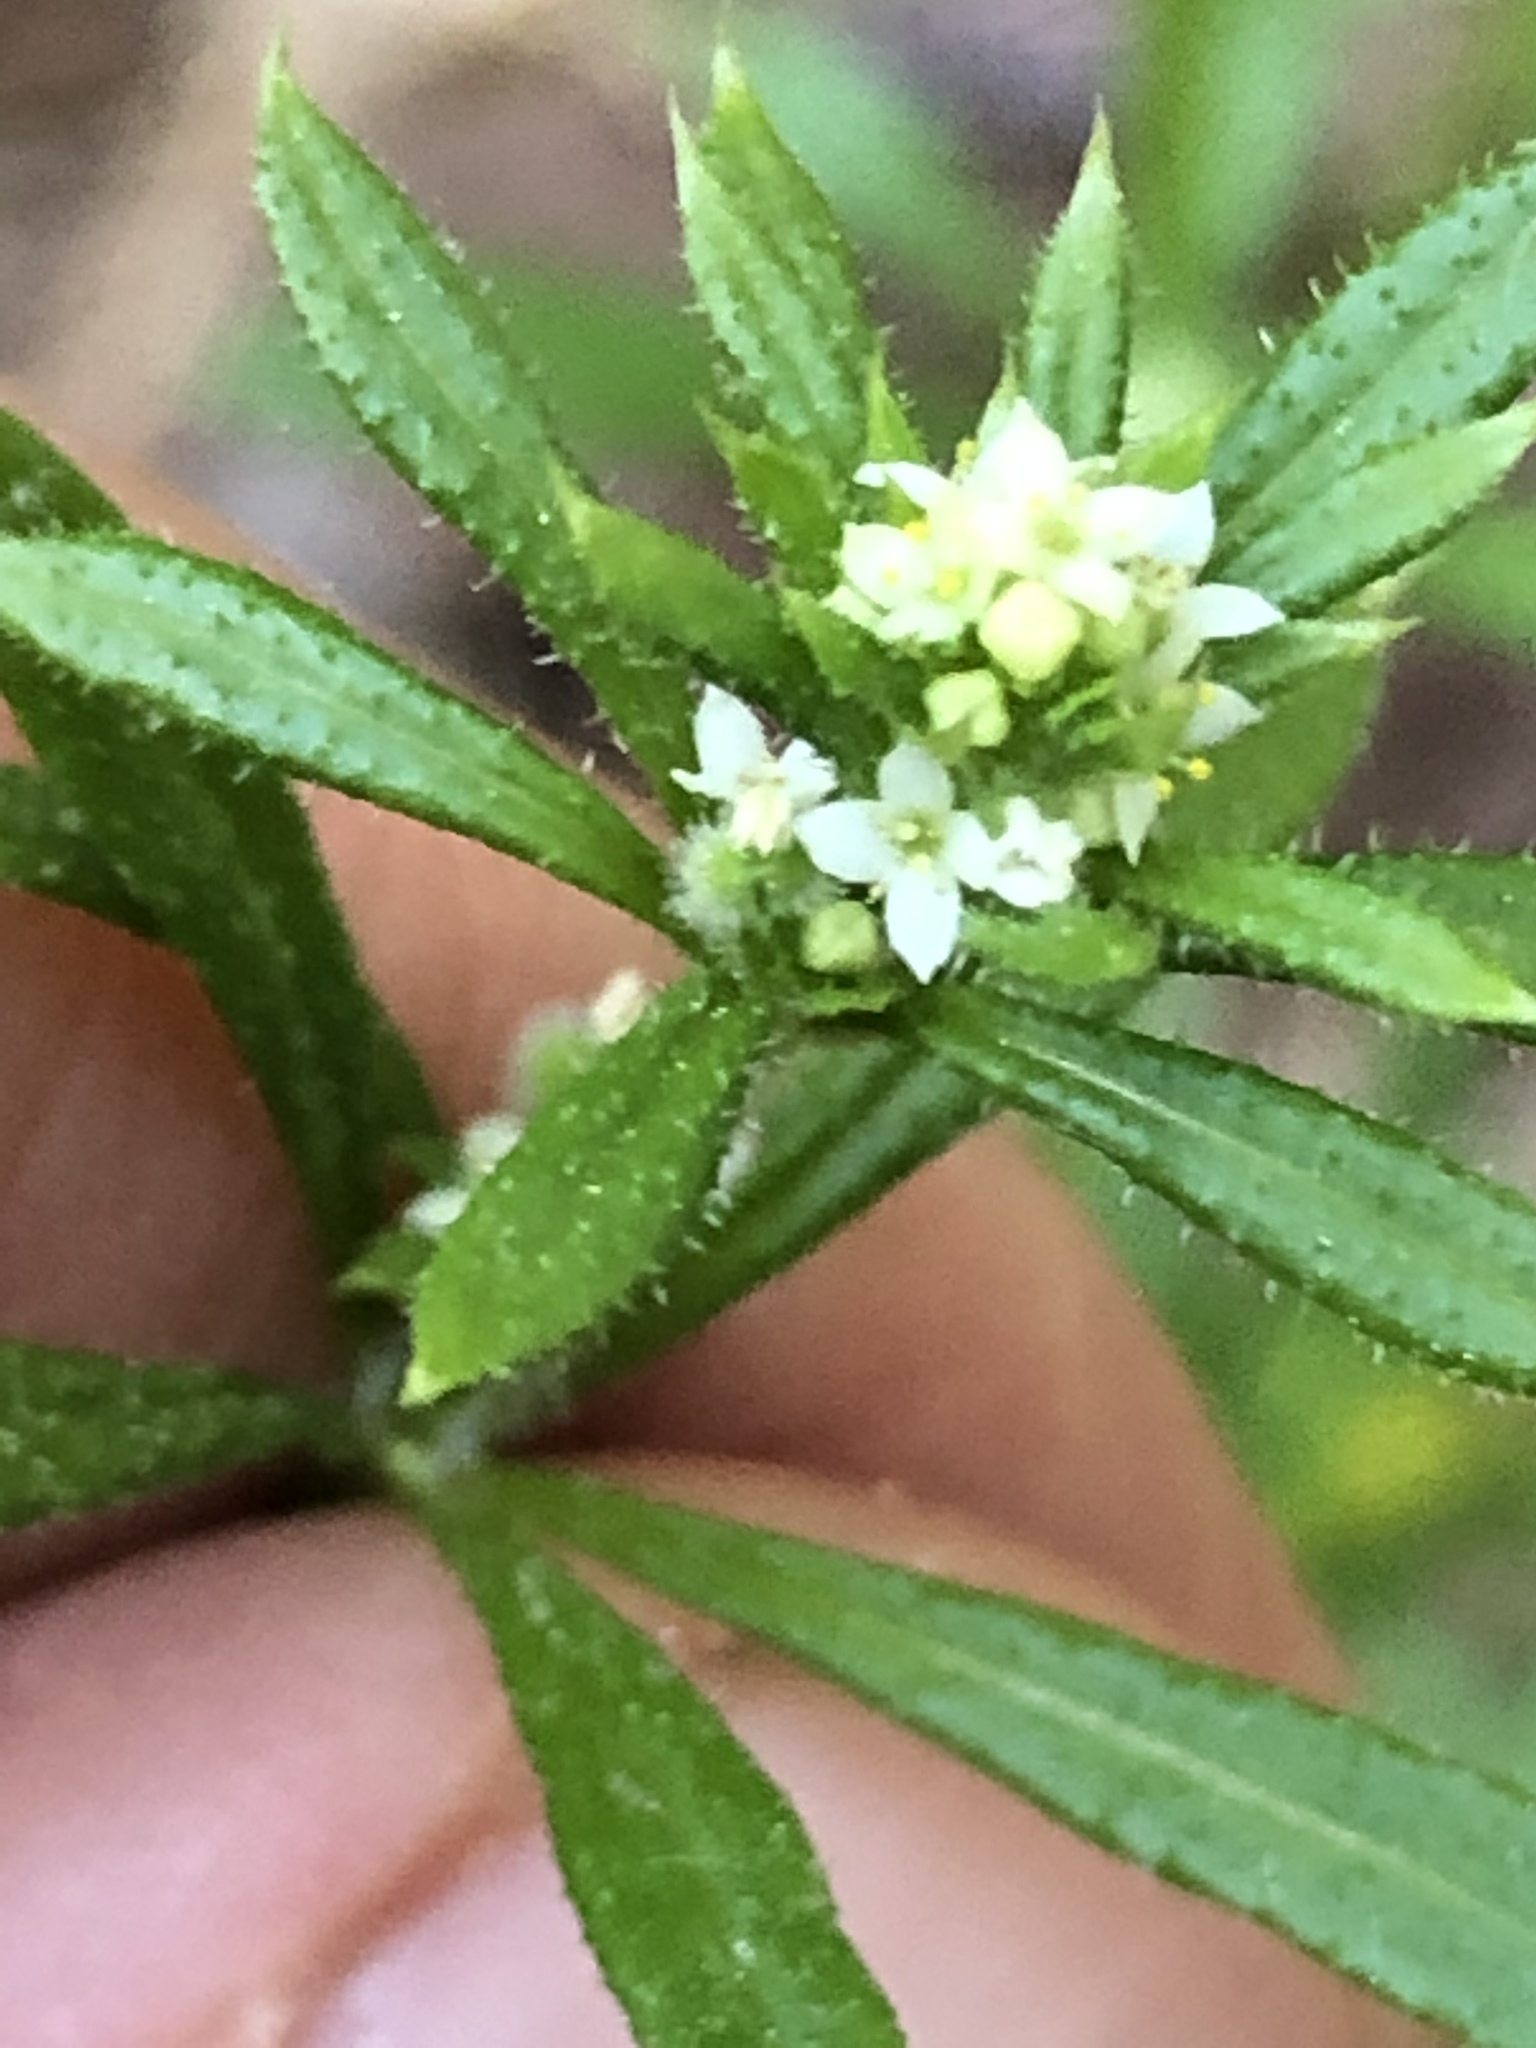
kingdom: Plantae
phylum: Tracheophyta
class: Magnoliopsida
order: Gentianales
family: Rubiaceae
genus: Galium
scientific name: Galium aparine
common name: Cleavers
